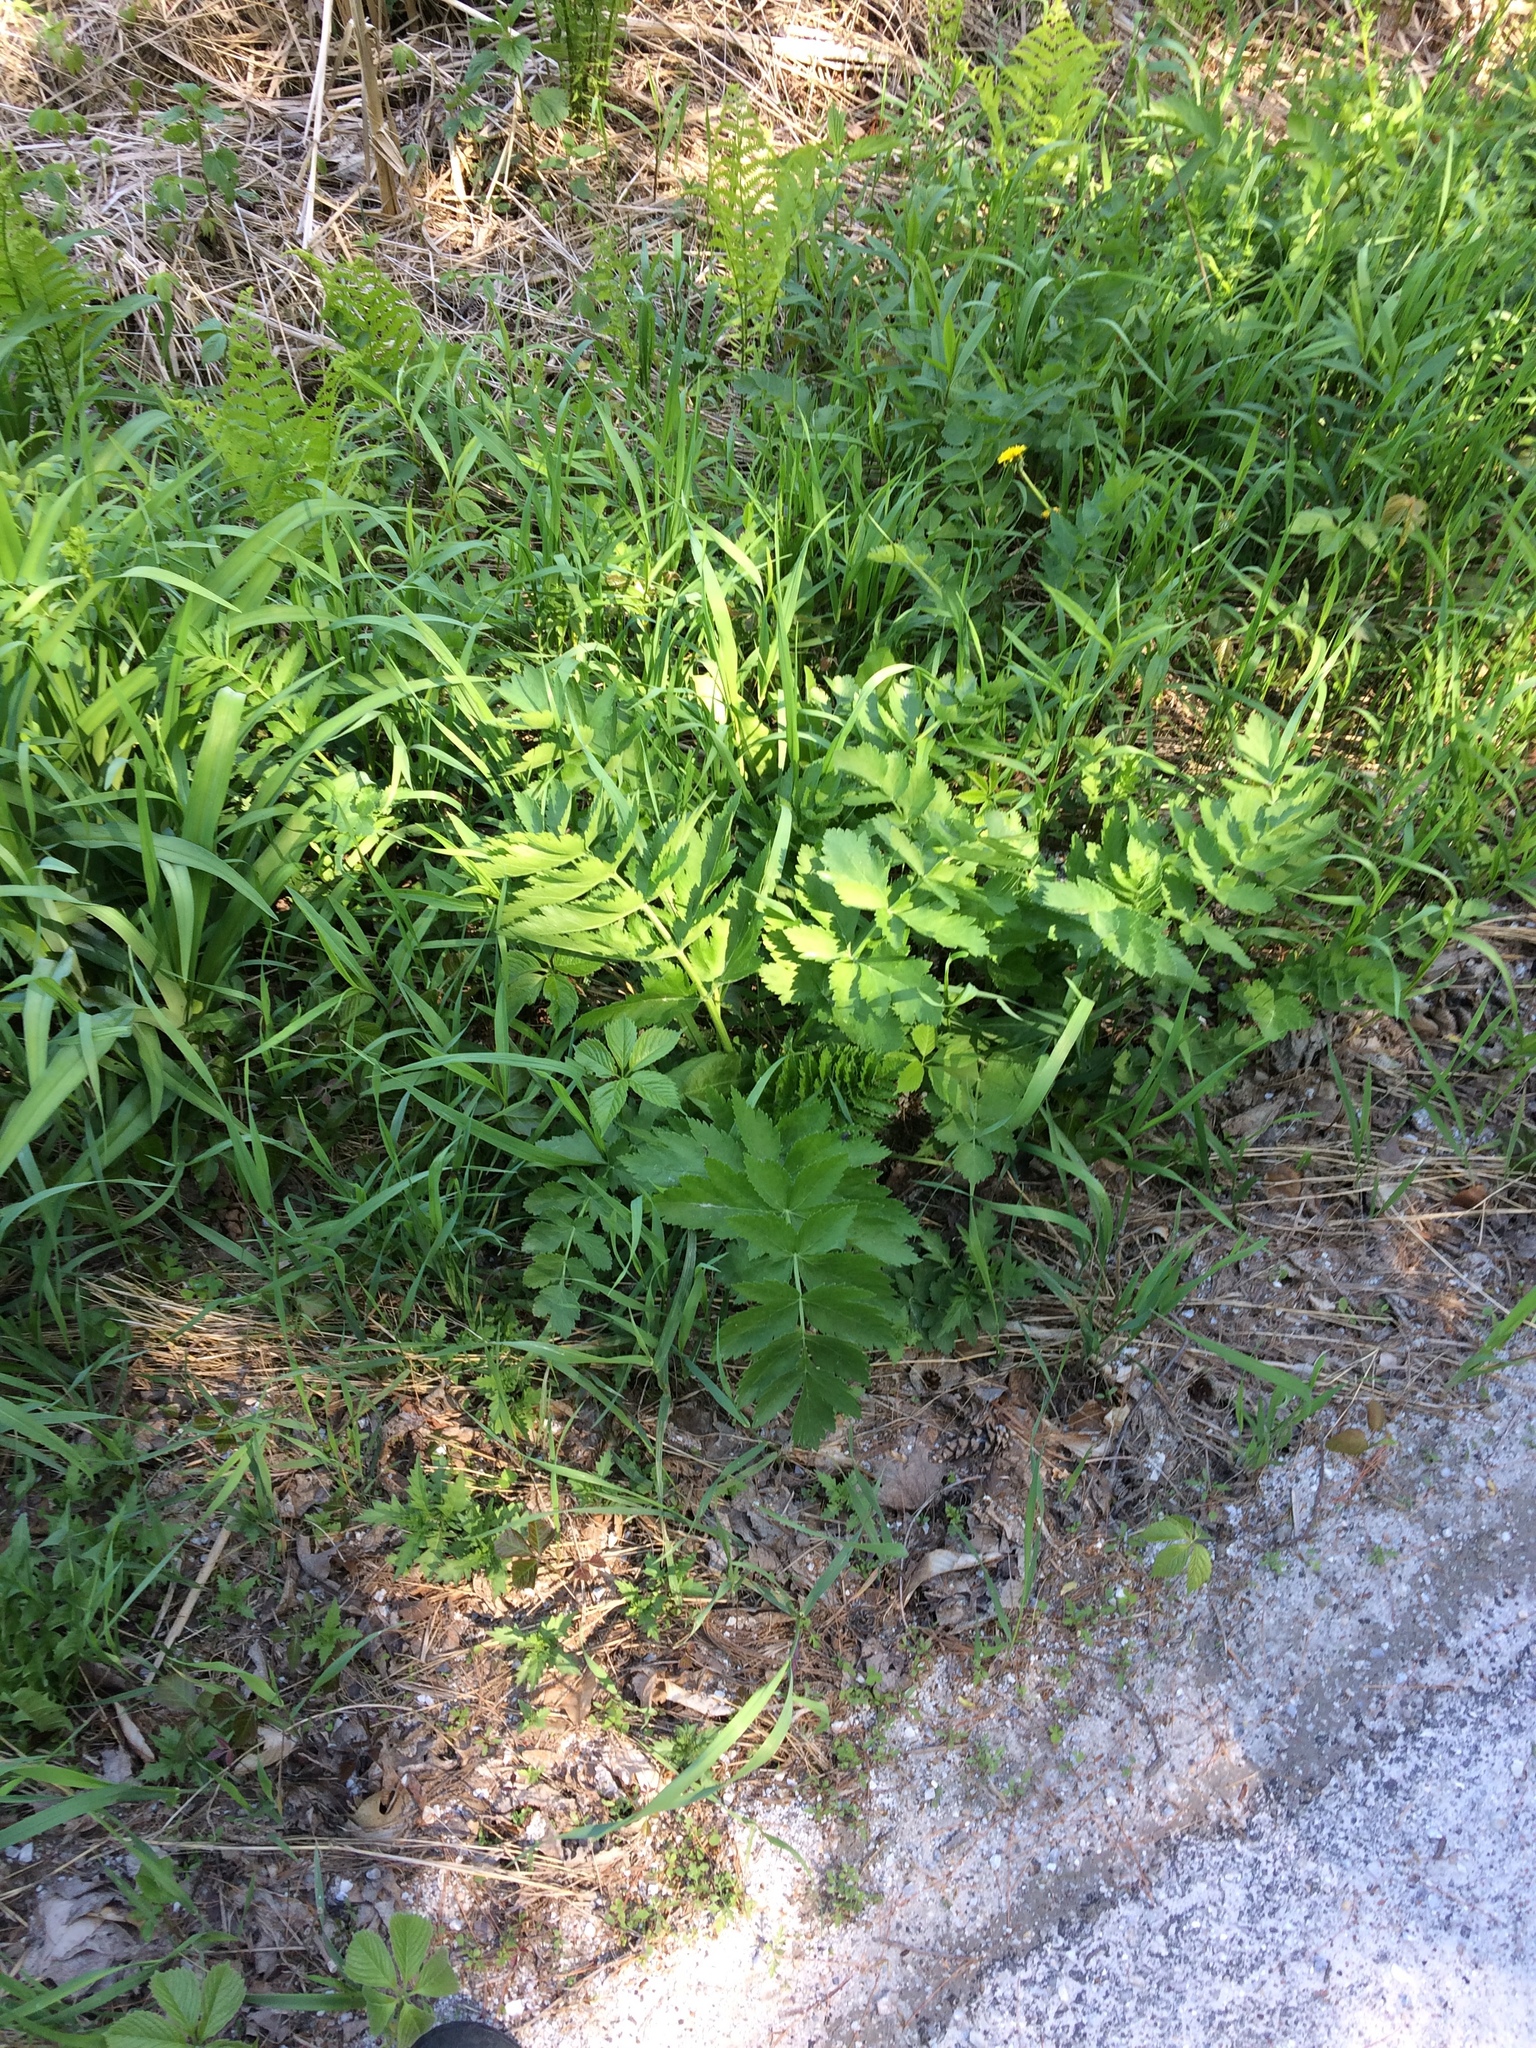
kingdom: Plantae
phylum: Tracheophyta
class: Magnoliopsida
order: Apiales
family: Apiaceae
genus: Pastinaca
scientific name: Pastinaca sativa
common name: Wild parsnip
